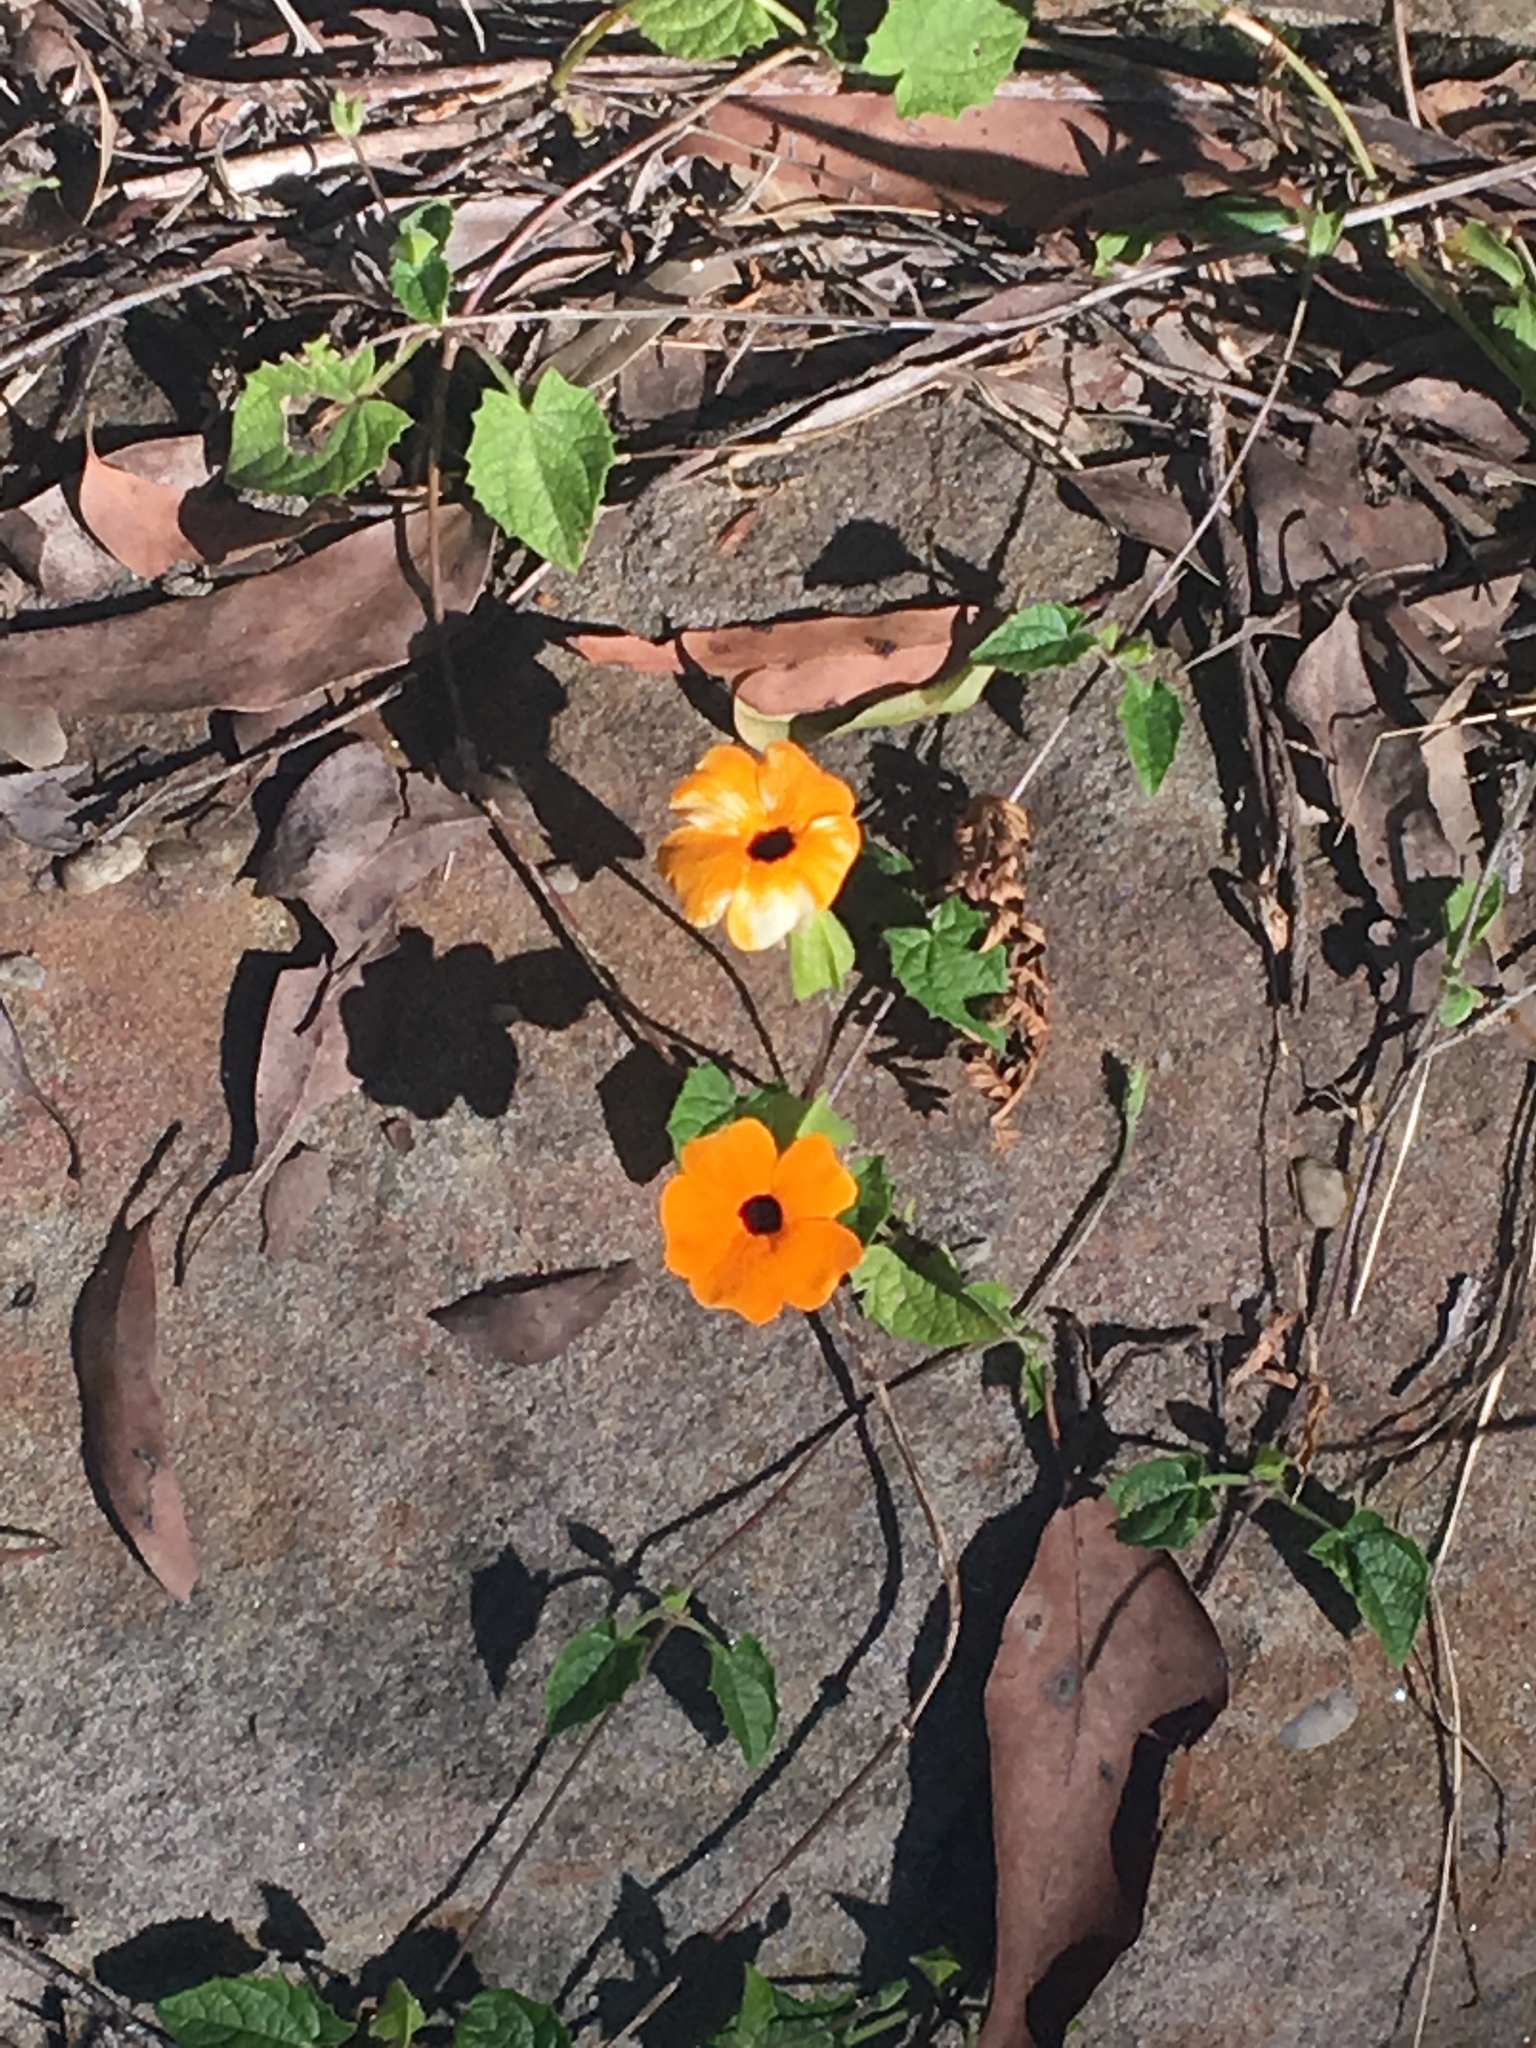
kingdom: Plantae
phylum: Tracheophyta
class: Magnoliopsida
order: Lamiales
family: Acanthaceae
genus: Thunbergia
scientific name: Thunbergia alata
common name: Blackeyed susan vine
